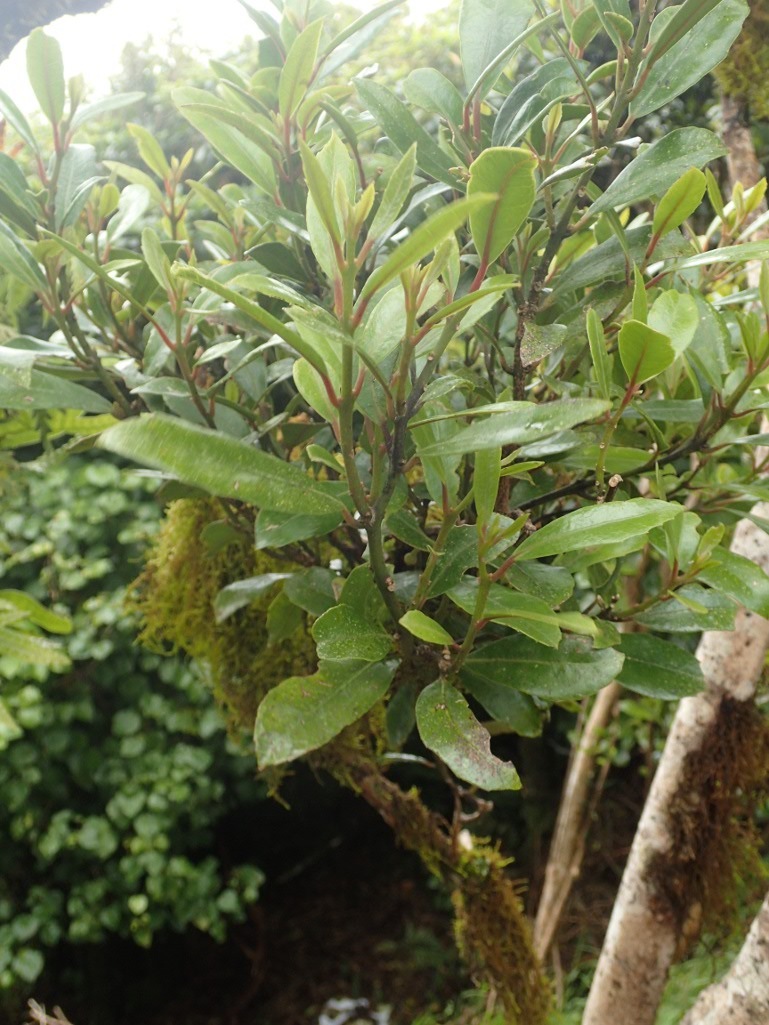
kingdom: Plantae
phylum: Tracheophyta
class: Magnoliopsida
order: Laurales
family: Monimiaceae
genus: Hedycarya
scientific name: Hedycarya arborea
